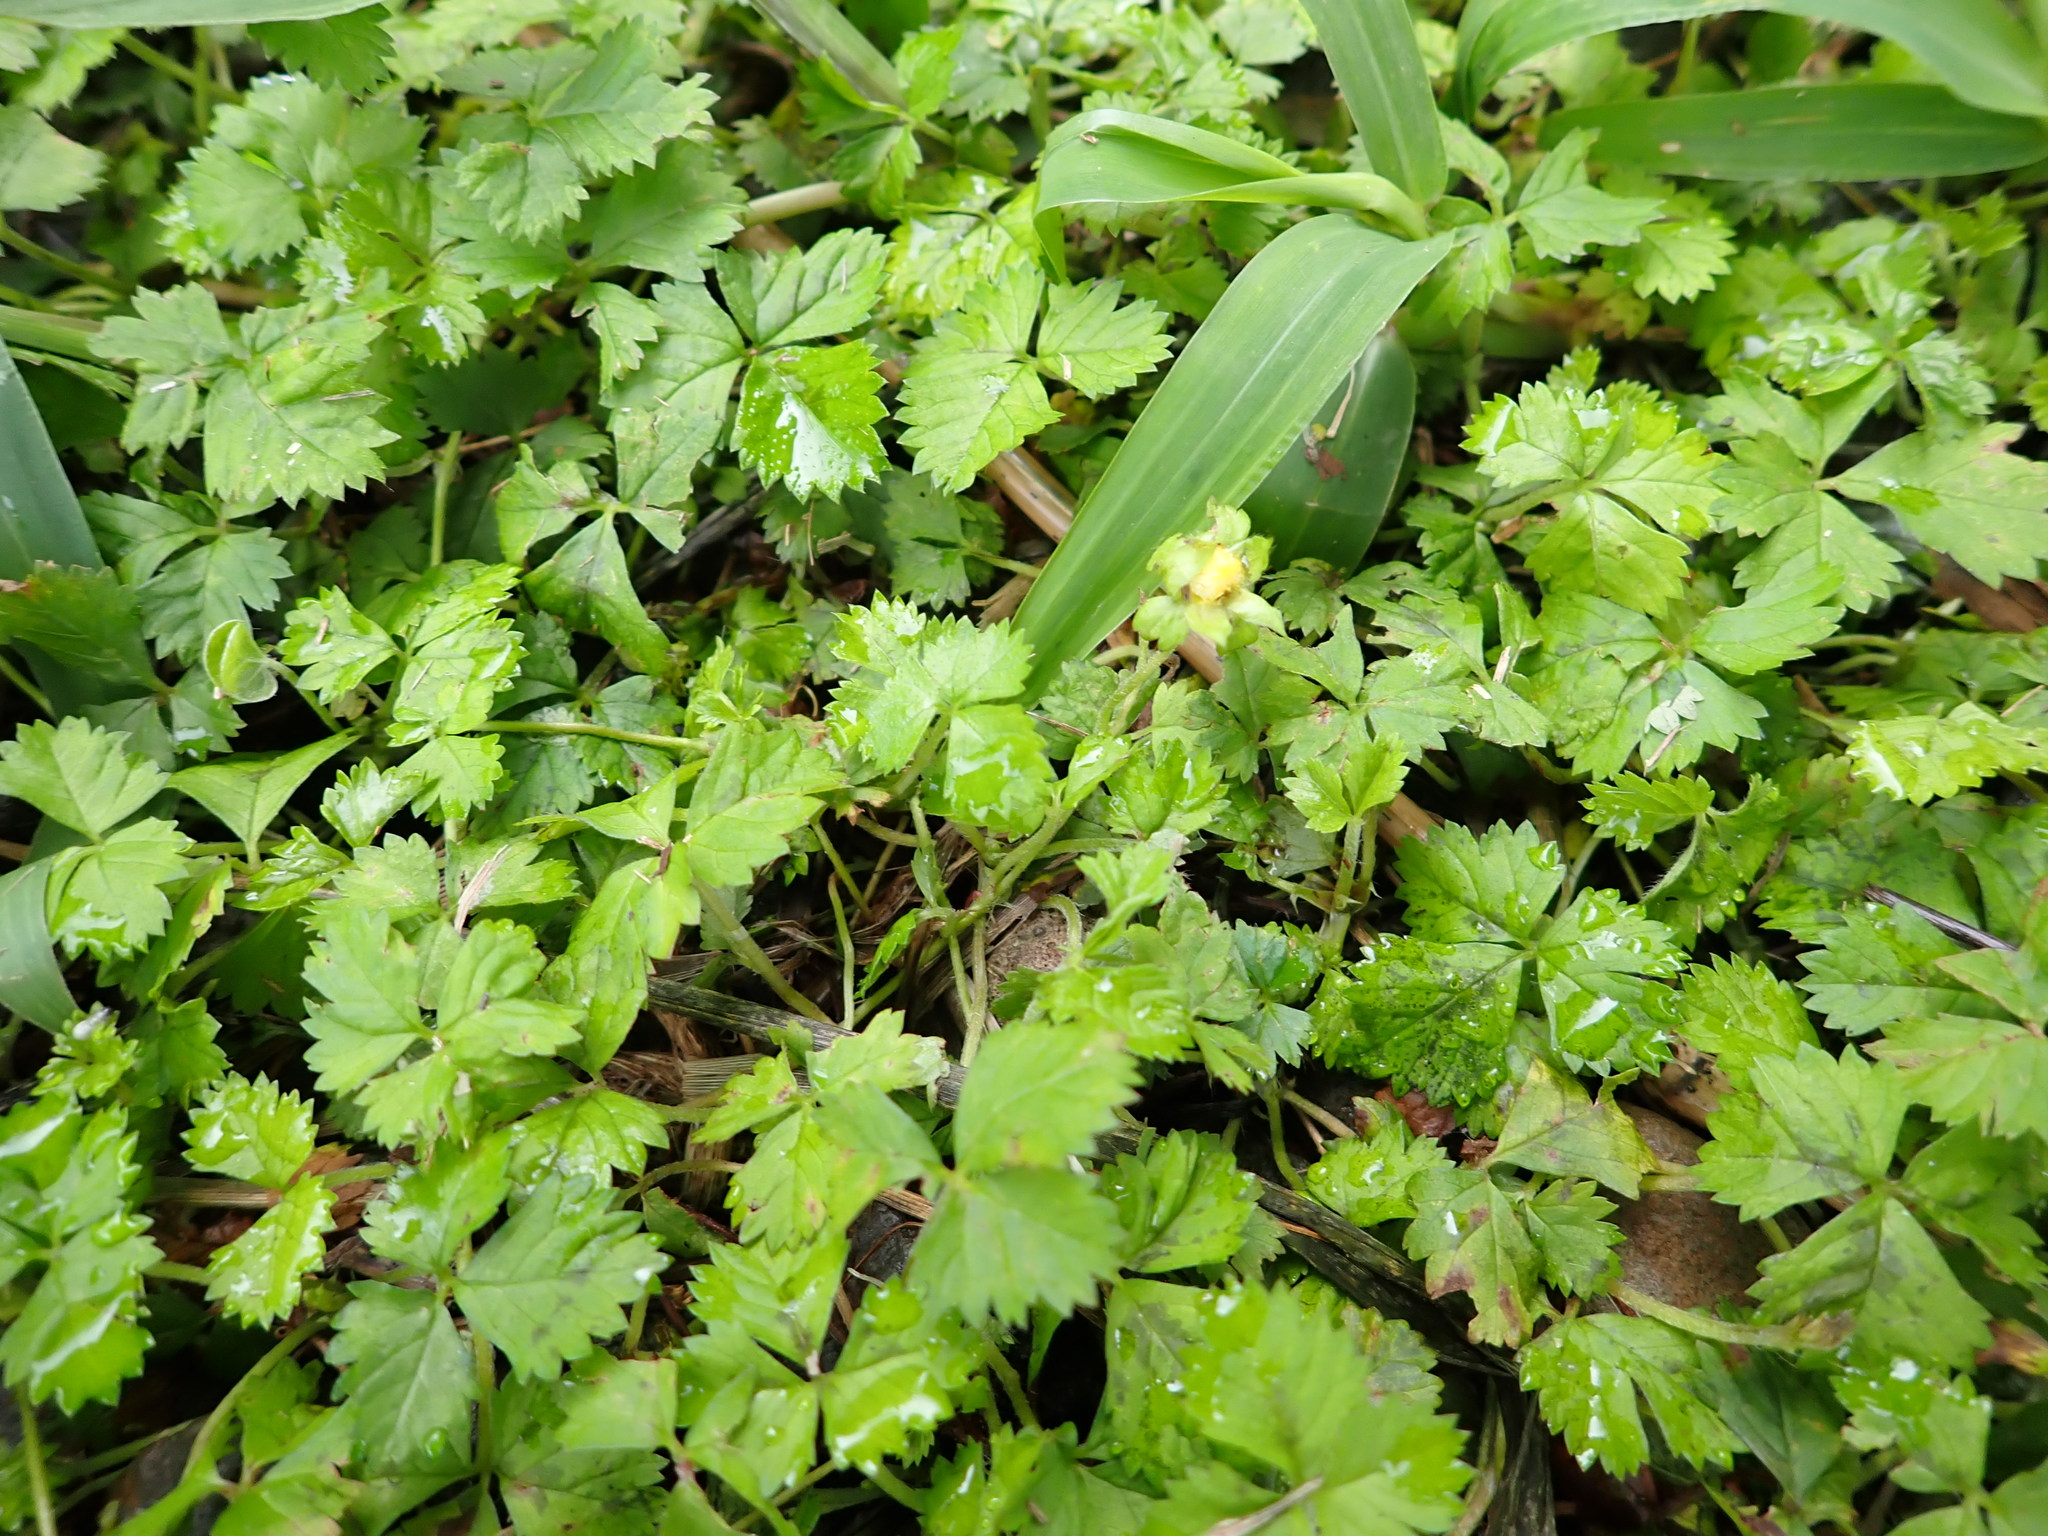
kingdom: Plantae
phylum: Tracheophyta
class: Magnoliopsida
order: Rosales
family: Rosaceae
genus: Potentilla
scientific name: Potentilla wallichiana
